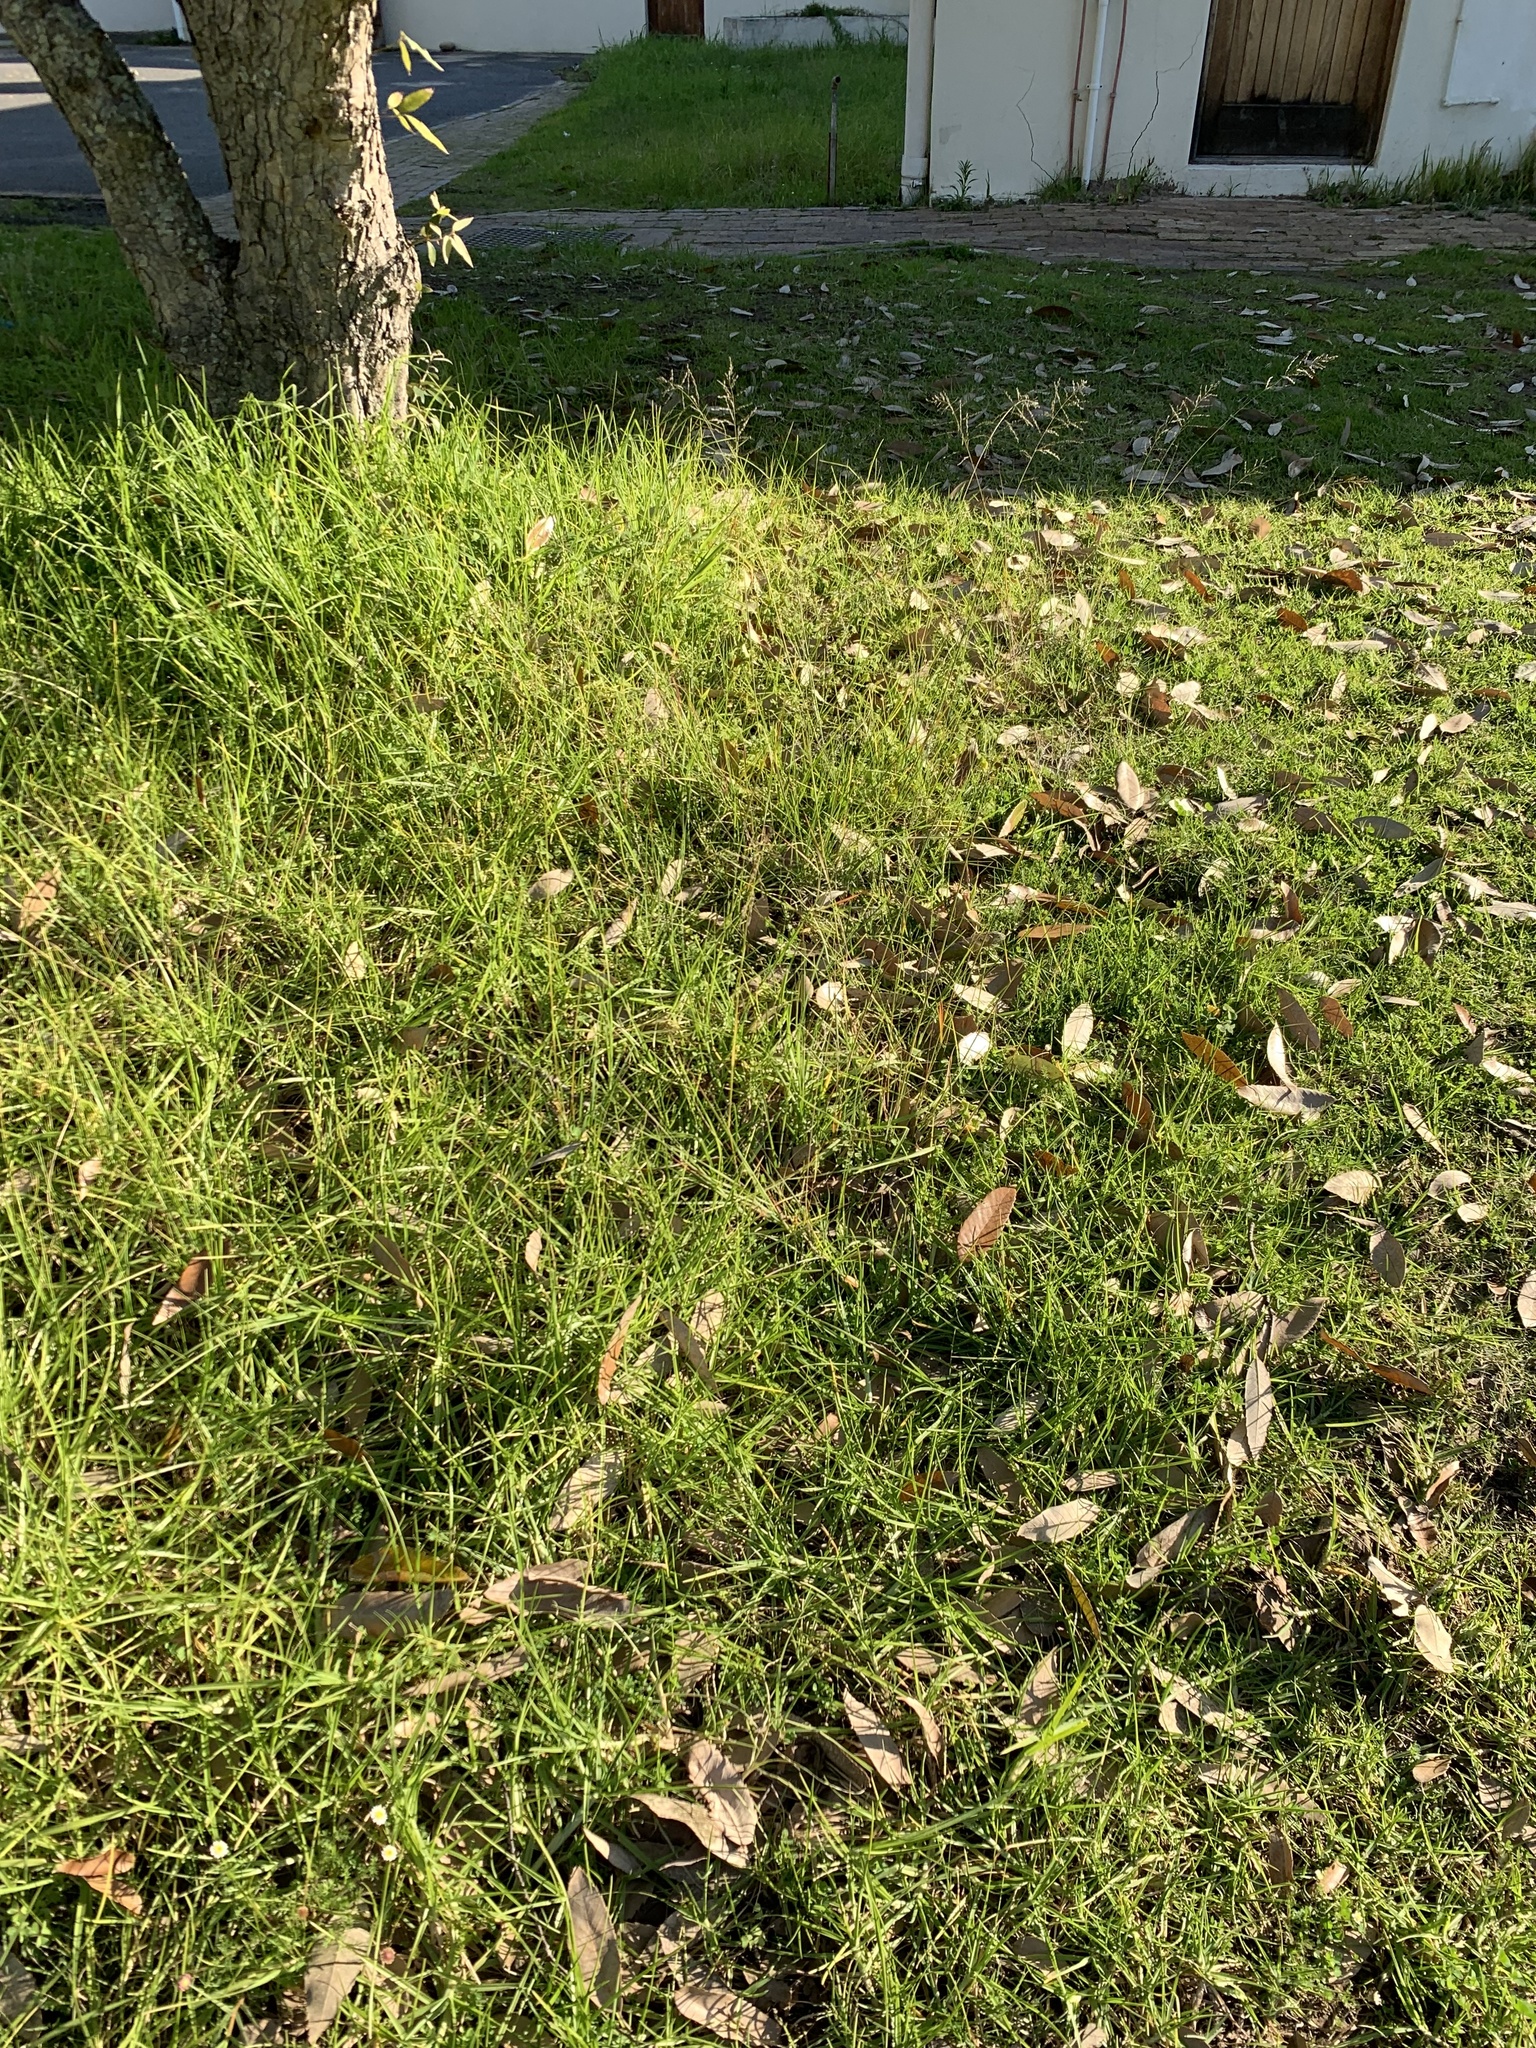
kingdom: Plantae
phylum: Tracheophyta
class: Liliopsida
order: Poales
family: Poaceae
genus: Eragrostis
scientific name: Eragrostis curvula
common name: African love-grass
